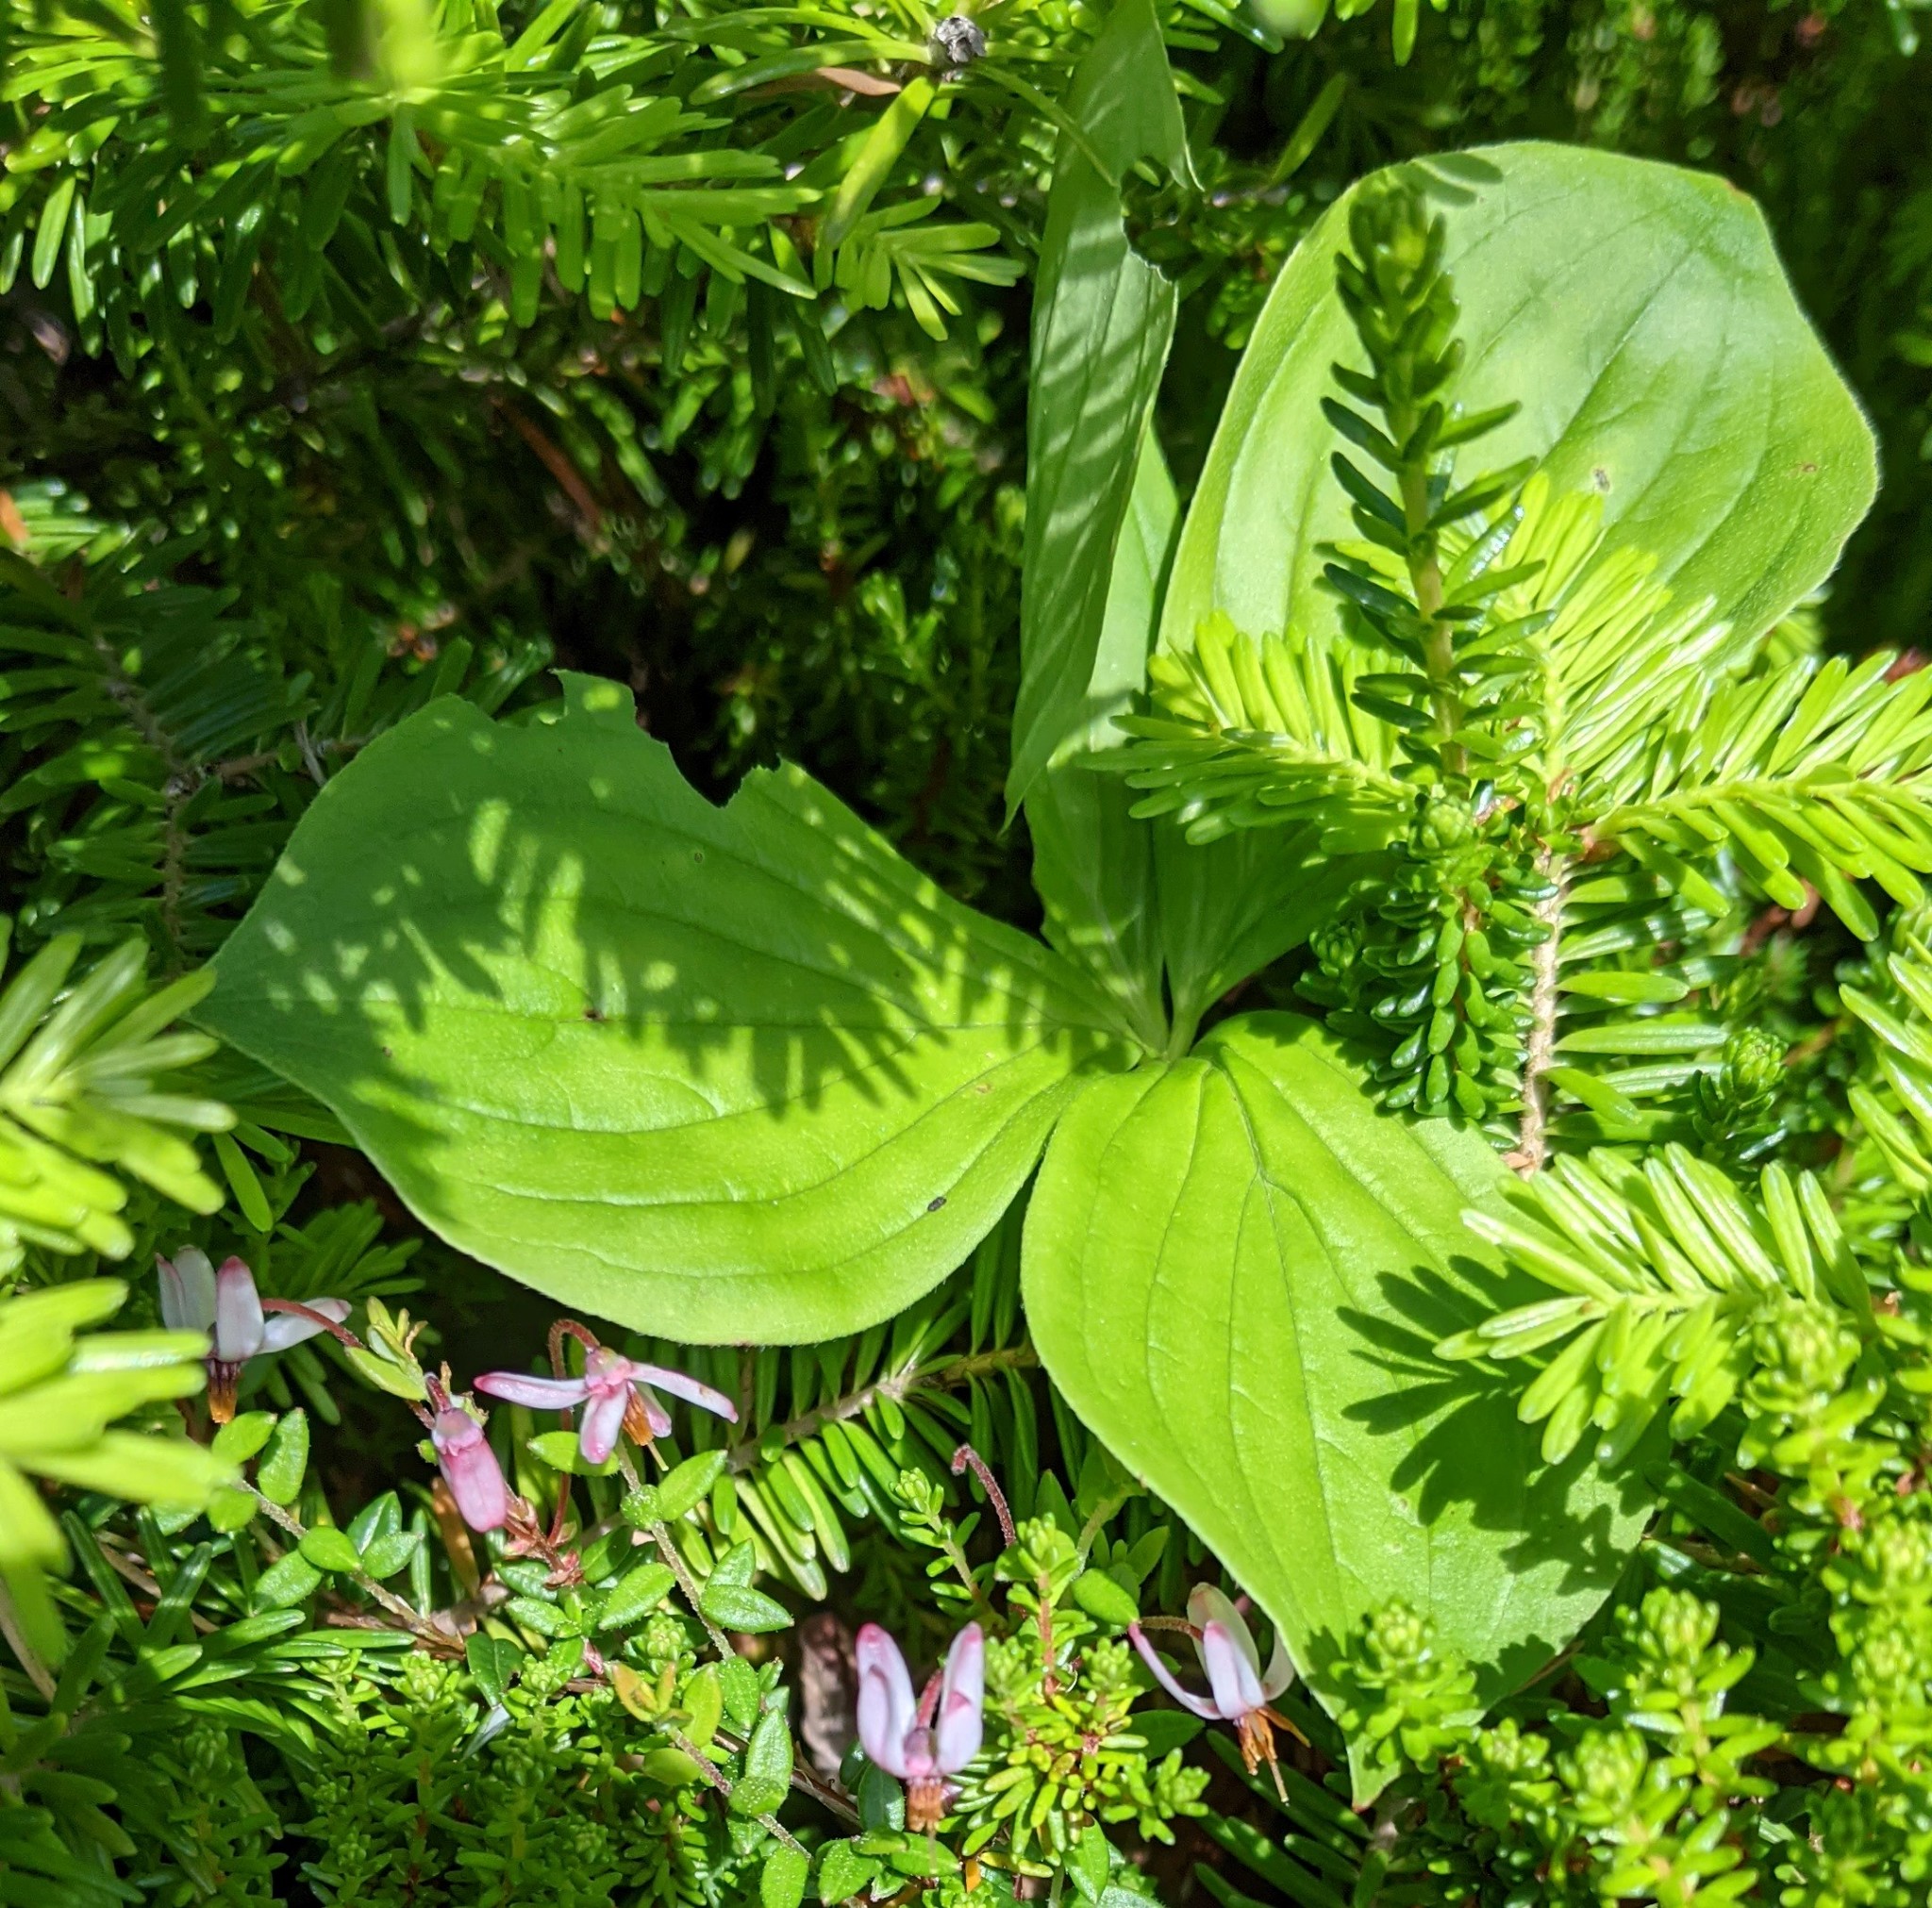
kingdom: Plantae
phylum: Tracheophyta
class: Magnoliopsida
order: Cornales
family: Cornaceae
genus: Cornus
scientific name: Cornus canadensis
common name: Creeping dogwood
